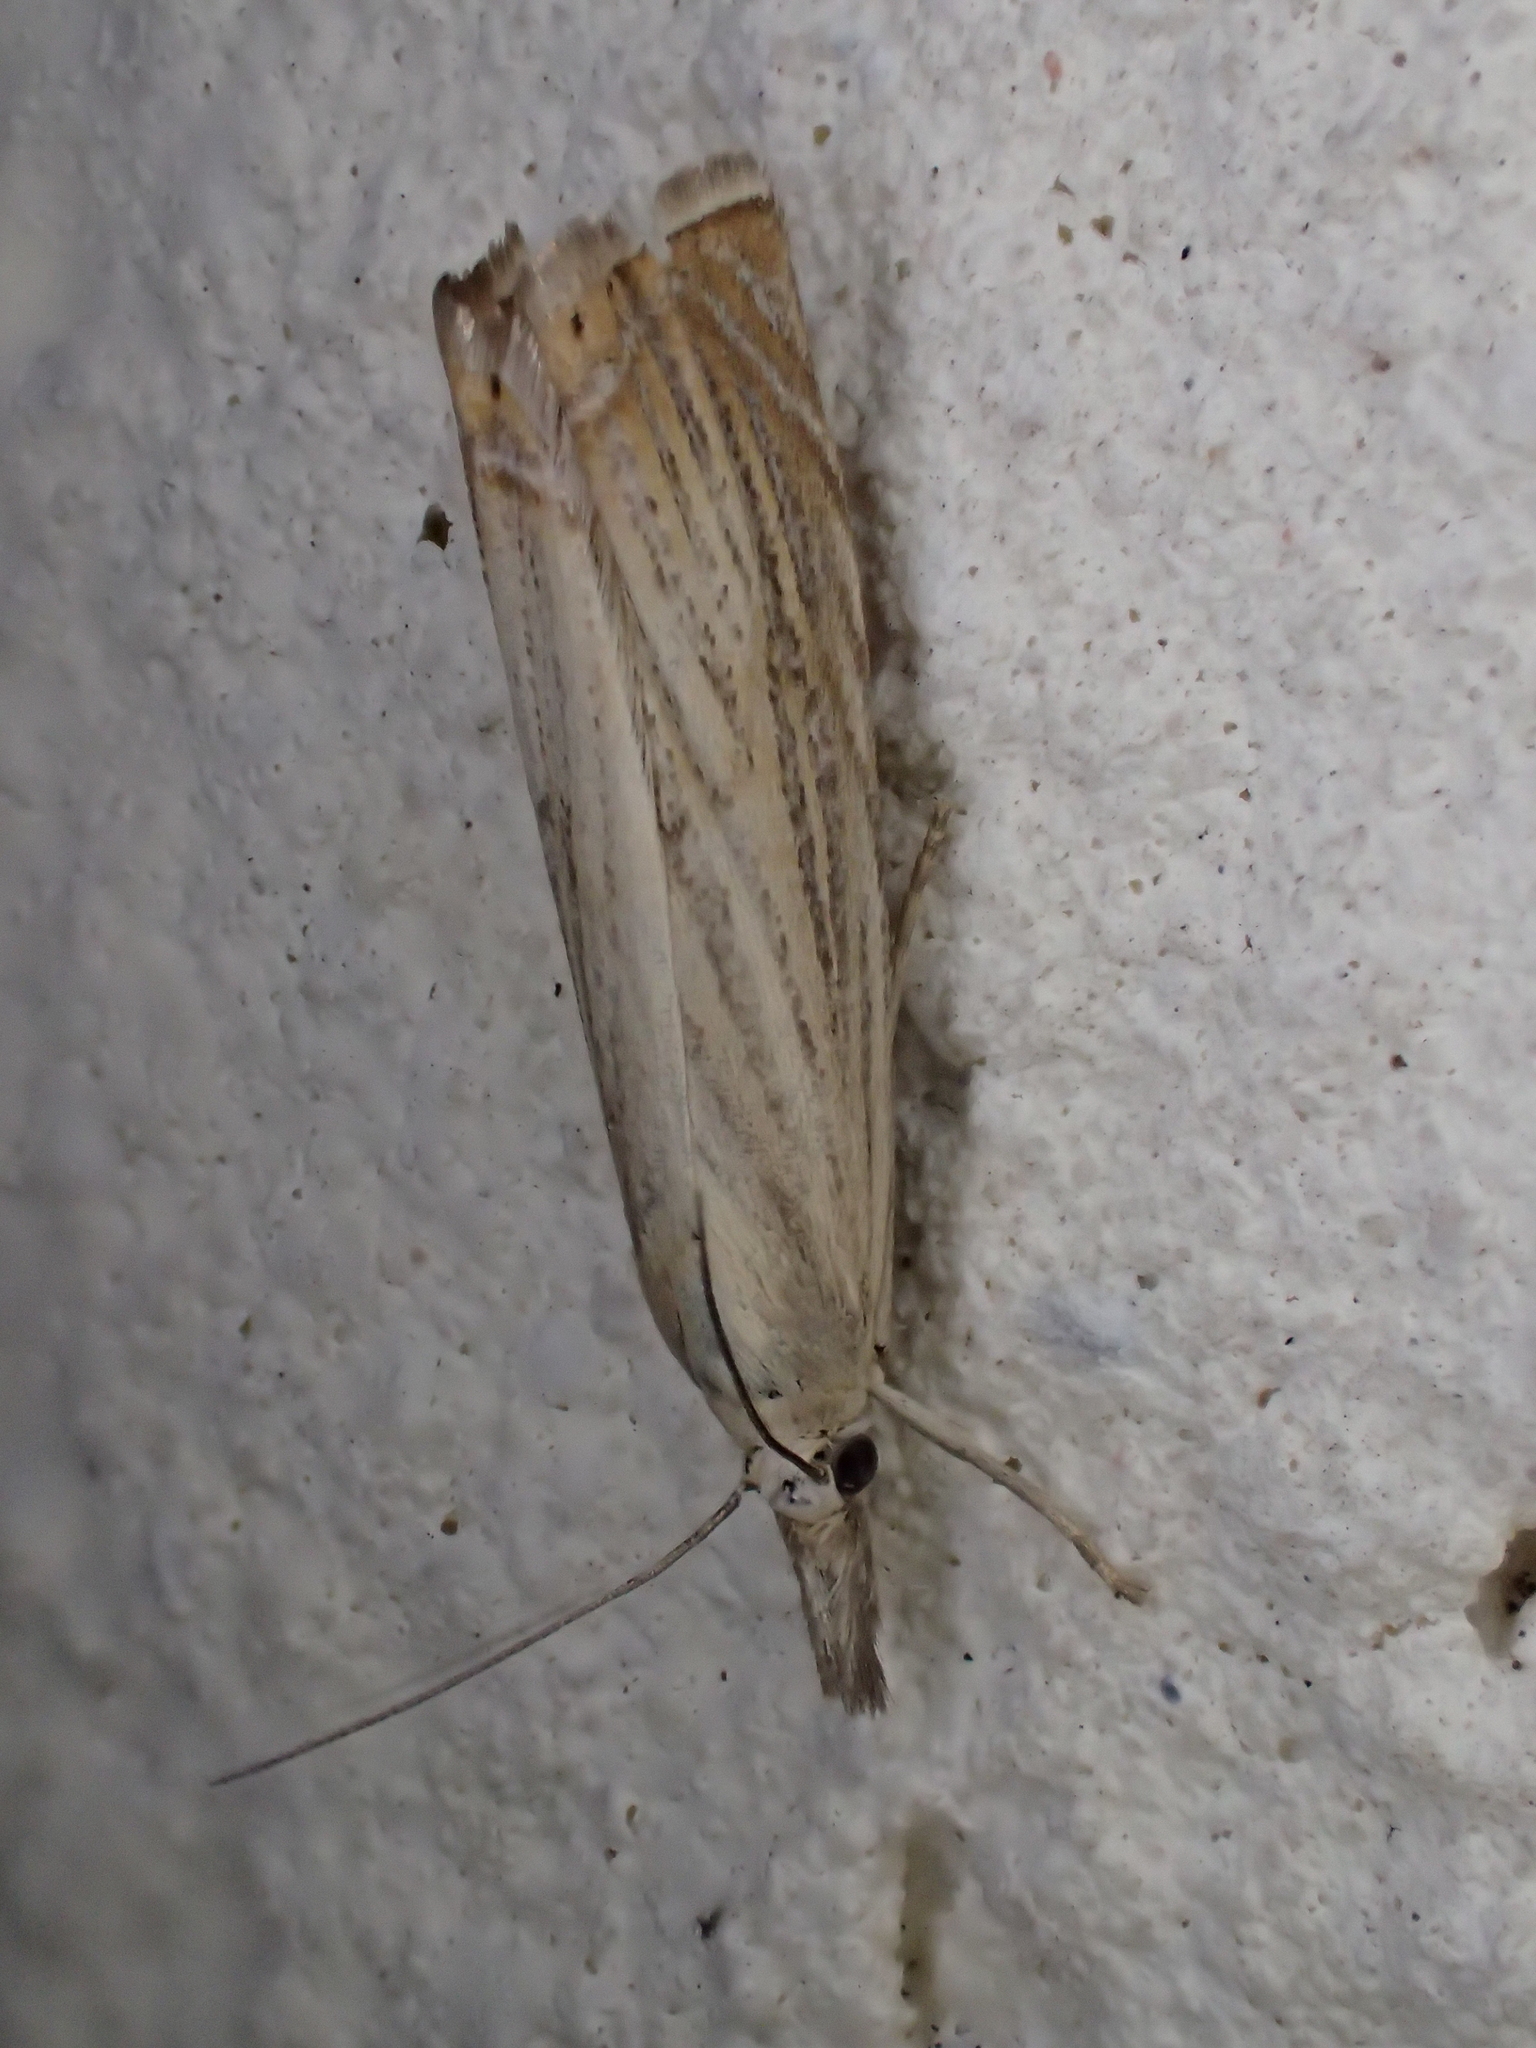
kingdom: Animalia
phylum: Arthropoda
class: Insecta
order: Lepidoptera
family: Crambidae
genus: Chrysoteuchia
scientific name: Chrysoteuchia culmella
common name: Garden grass-veneer
